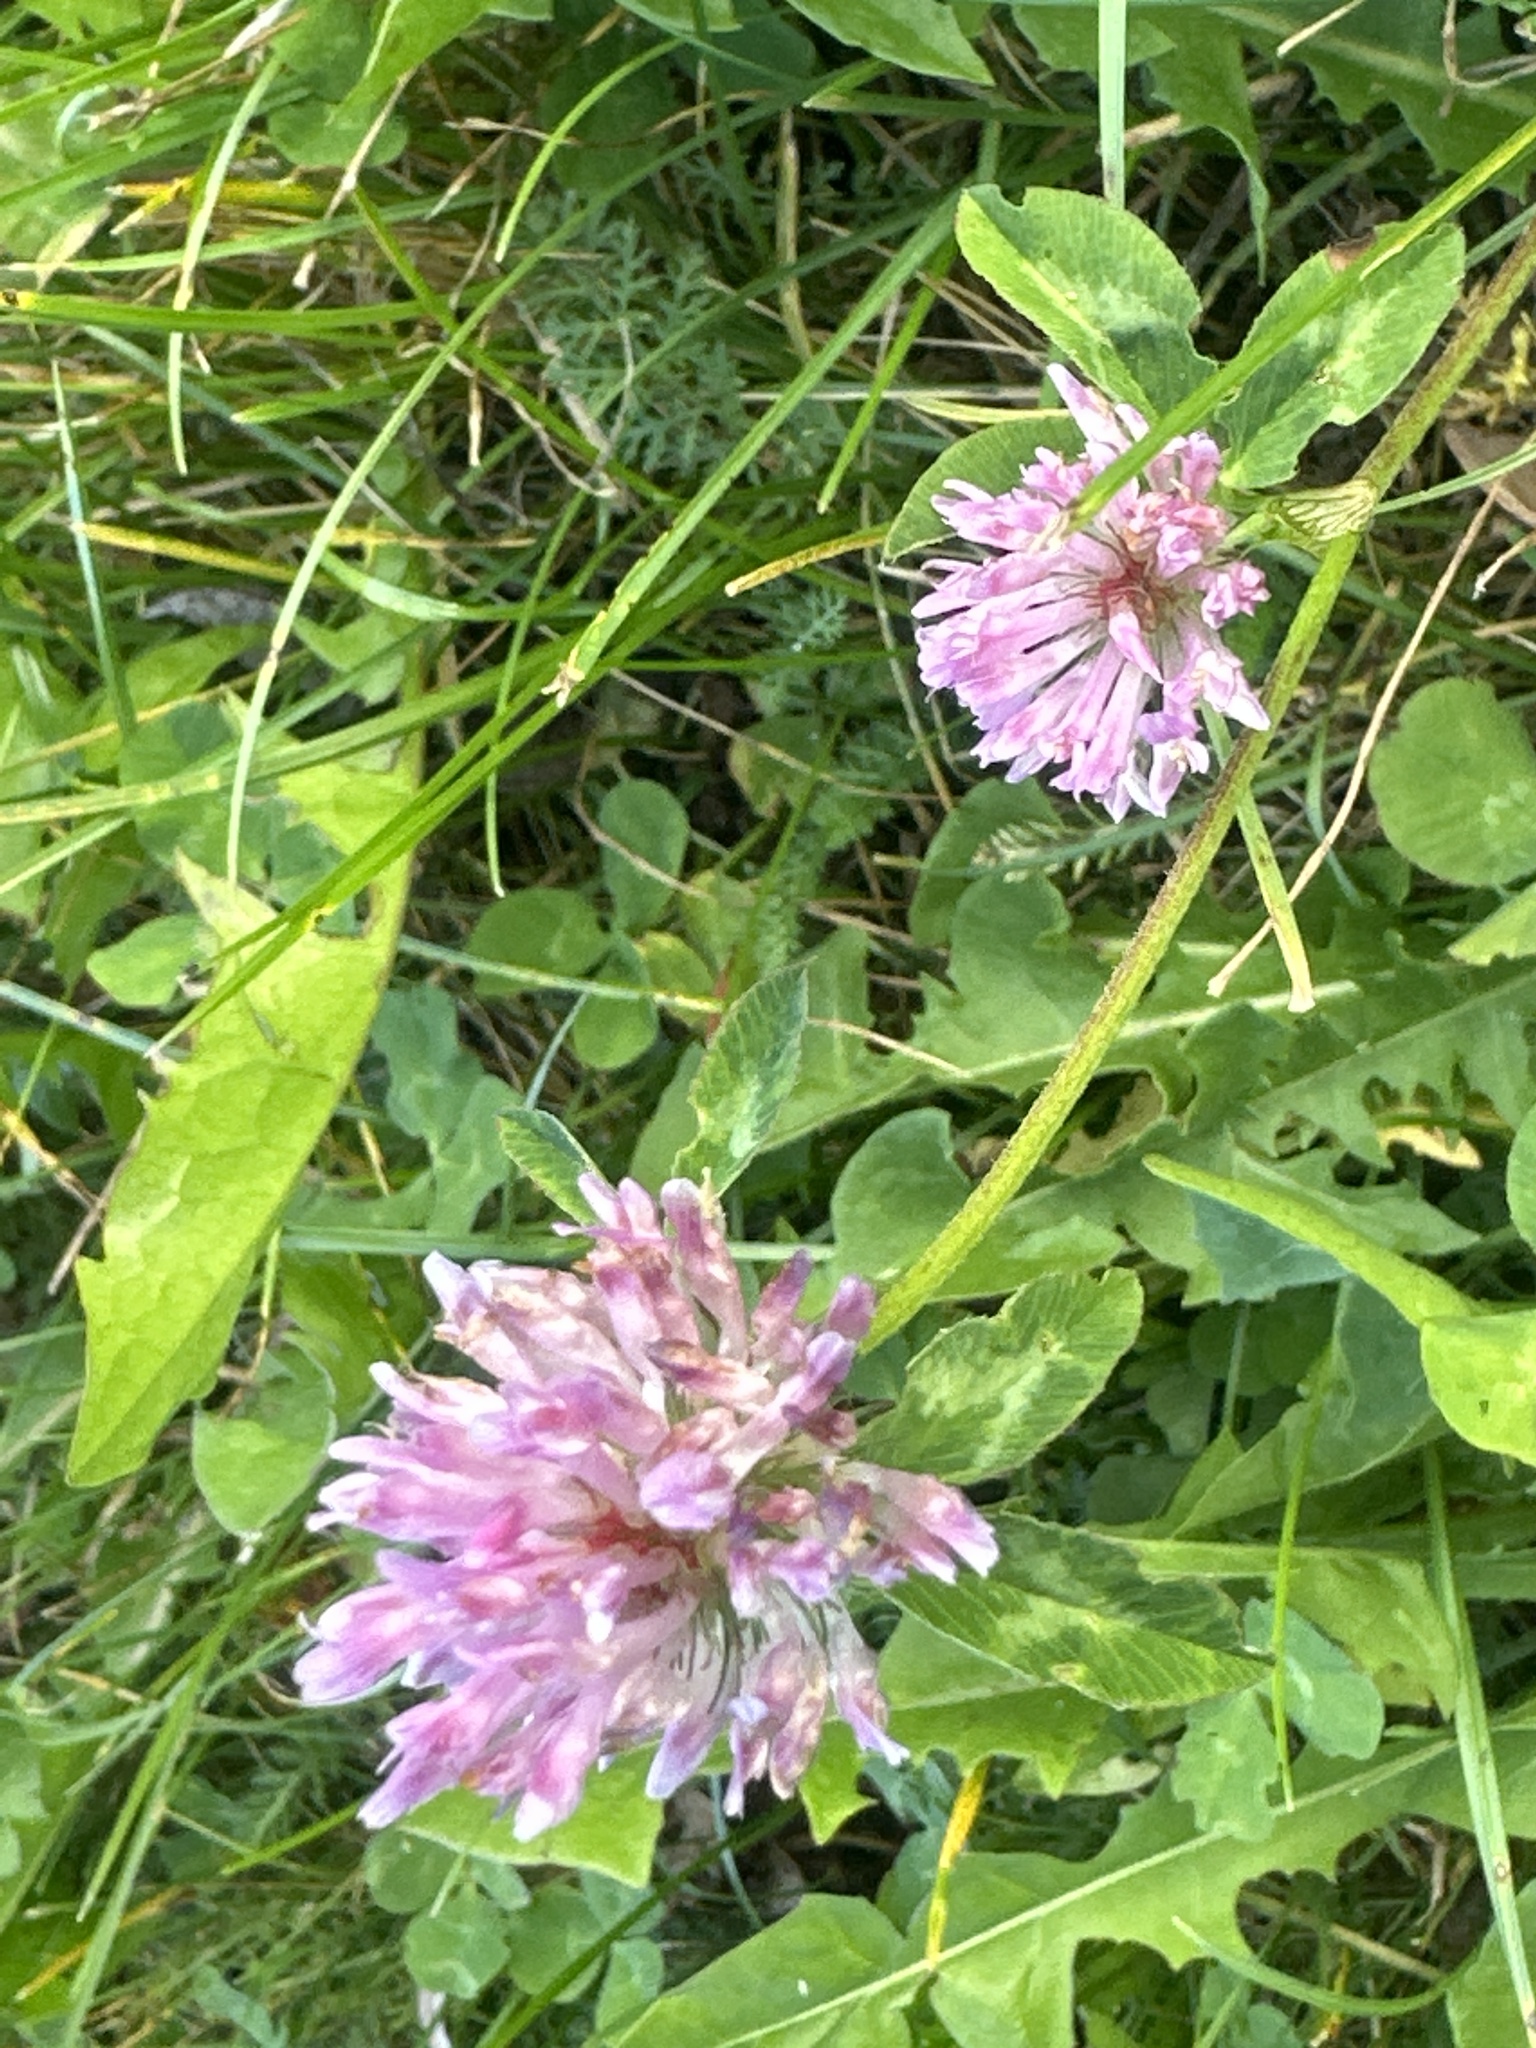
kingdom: Plantae
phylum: Tracheophyta
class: Magnoliopsida
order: Fabales
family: Fabaceae
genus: Trifolium
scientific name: Trifolium pratense
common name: Red clover
